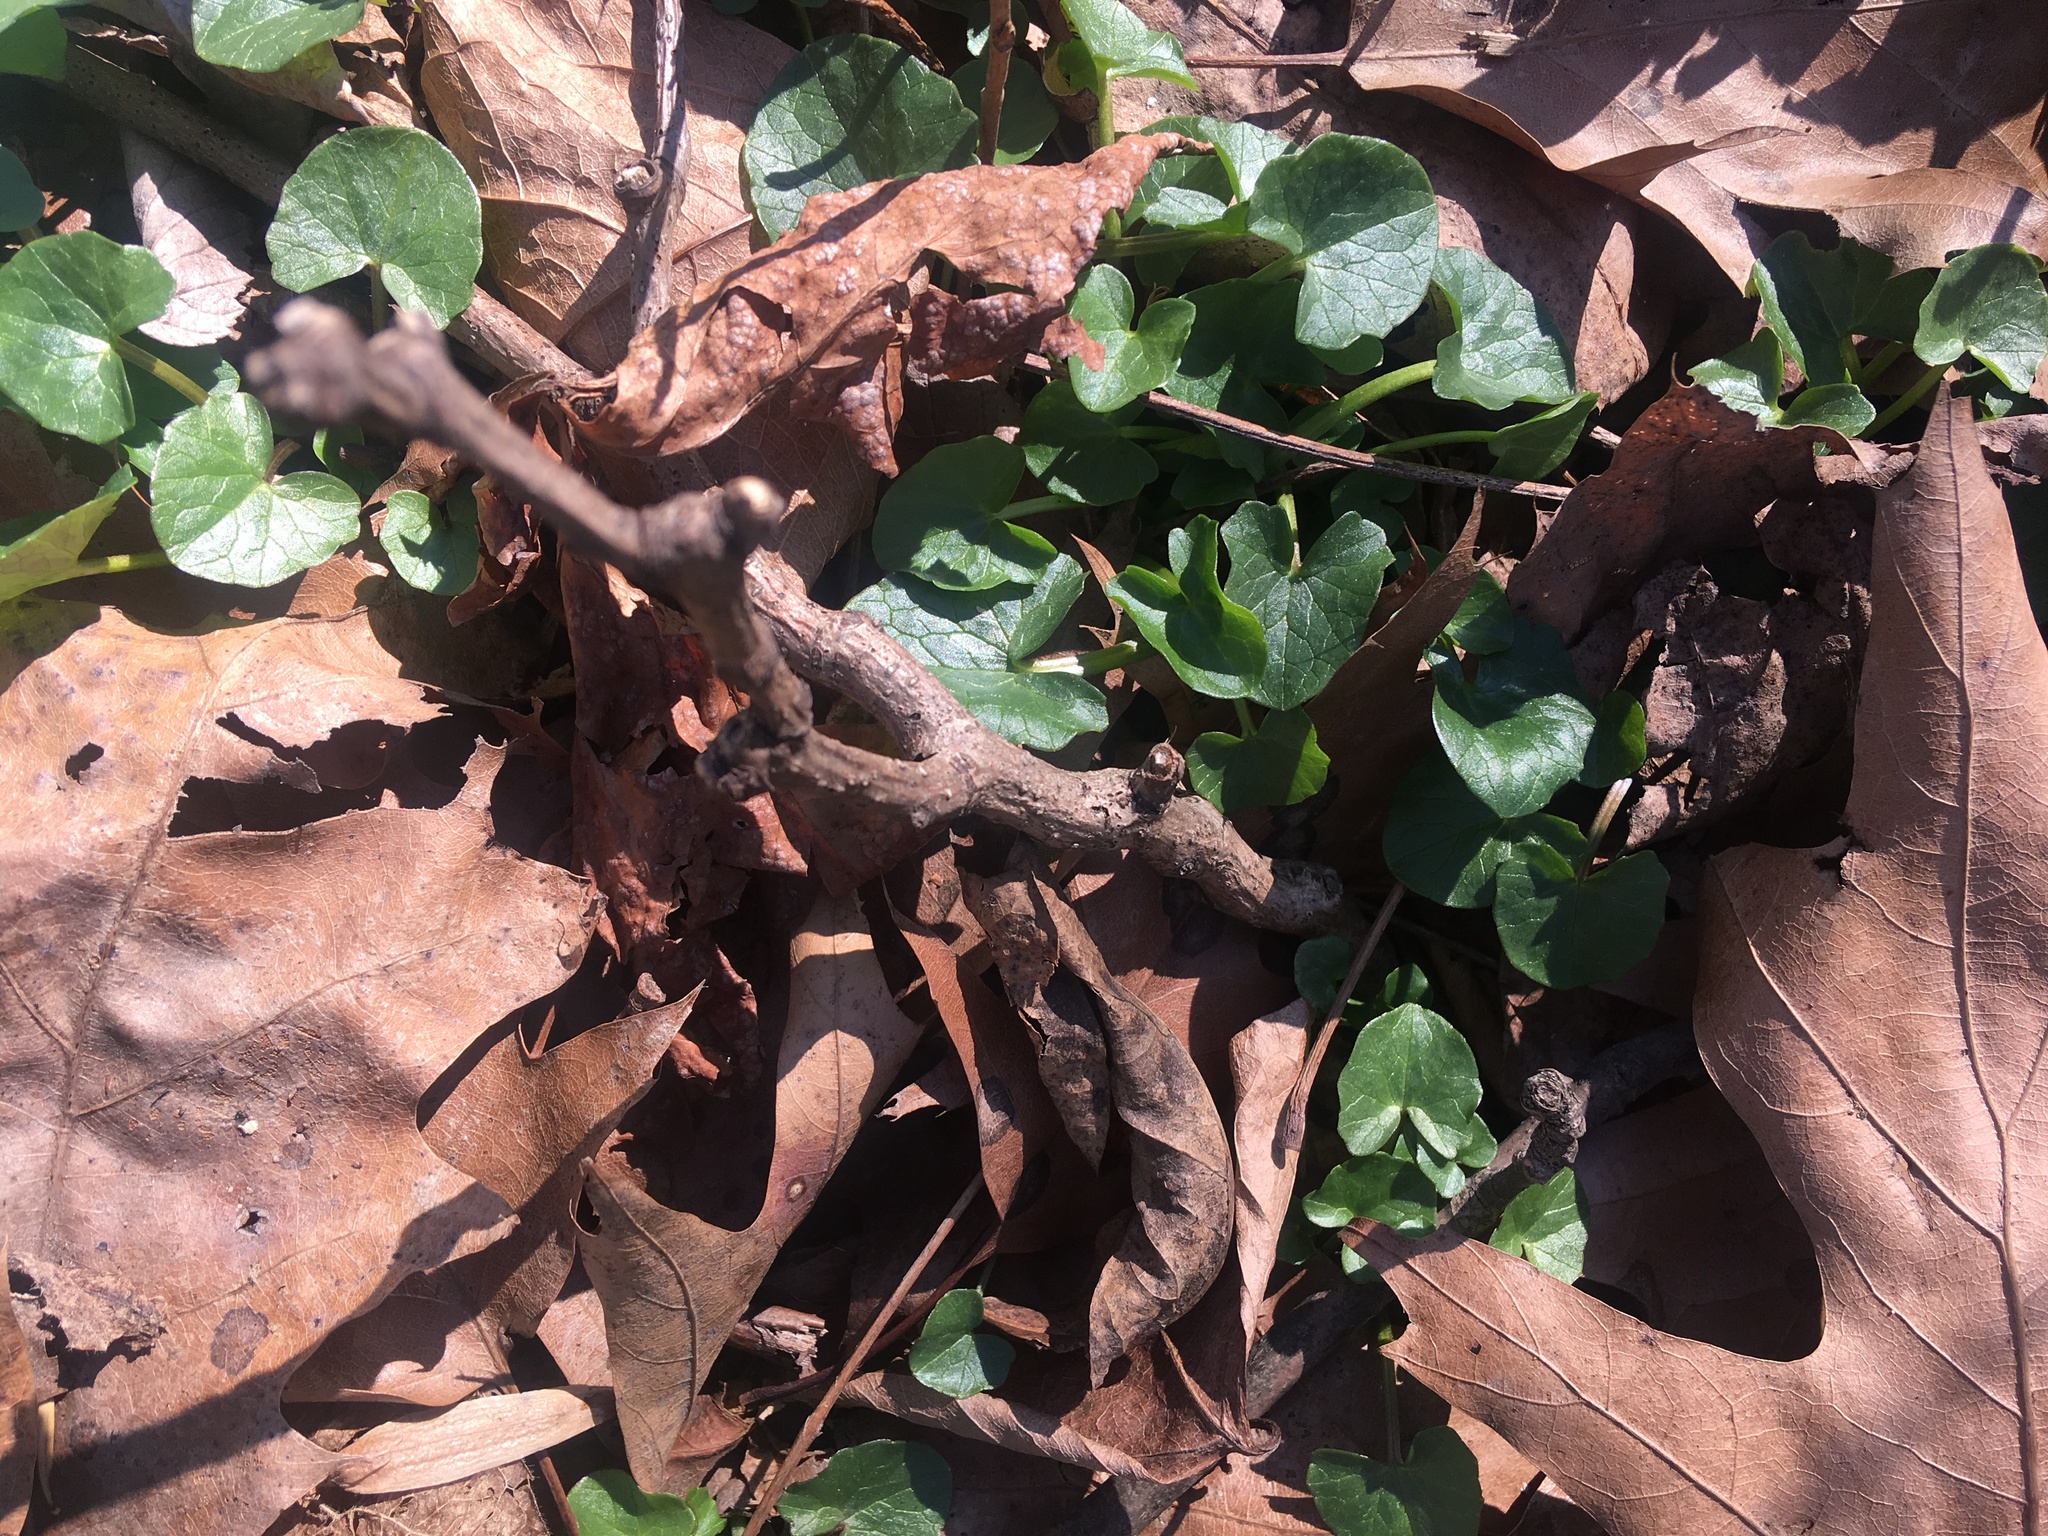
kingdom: Plantae
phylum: Tracheophyta
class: Magnoliopsida
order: Ranunculales
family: Ranunculaceae
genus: Ficaria
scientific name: Ficaria verna
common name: Lesser celandine
